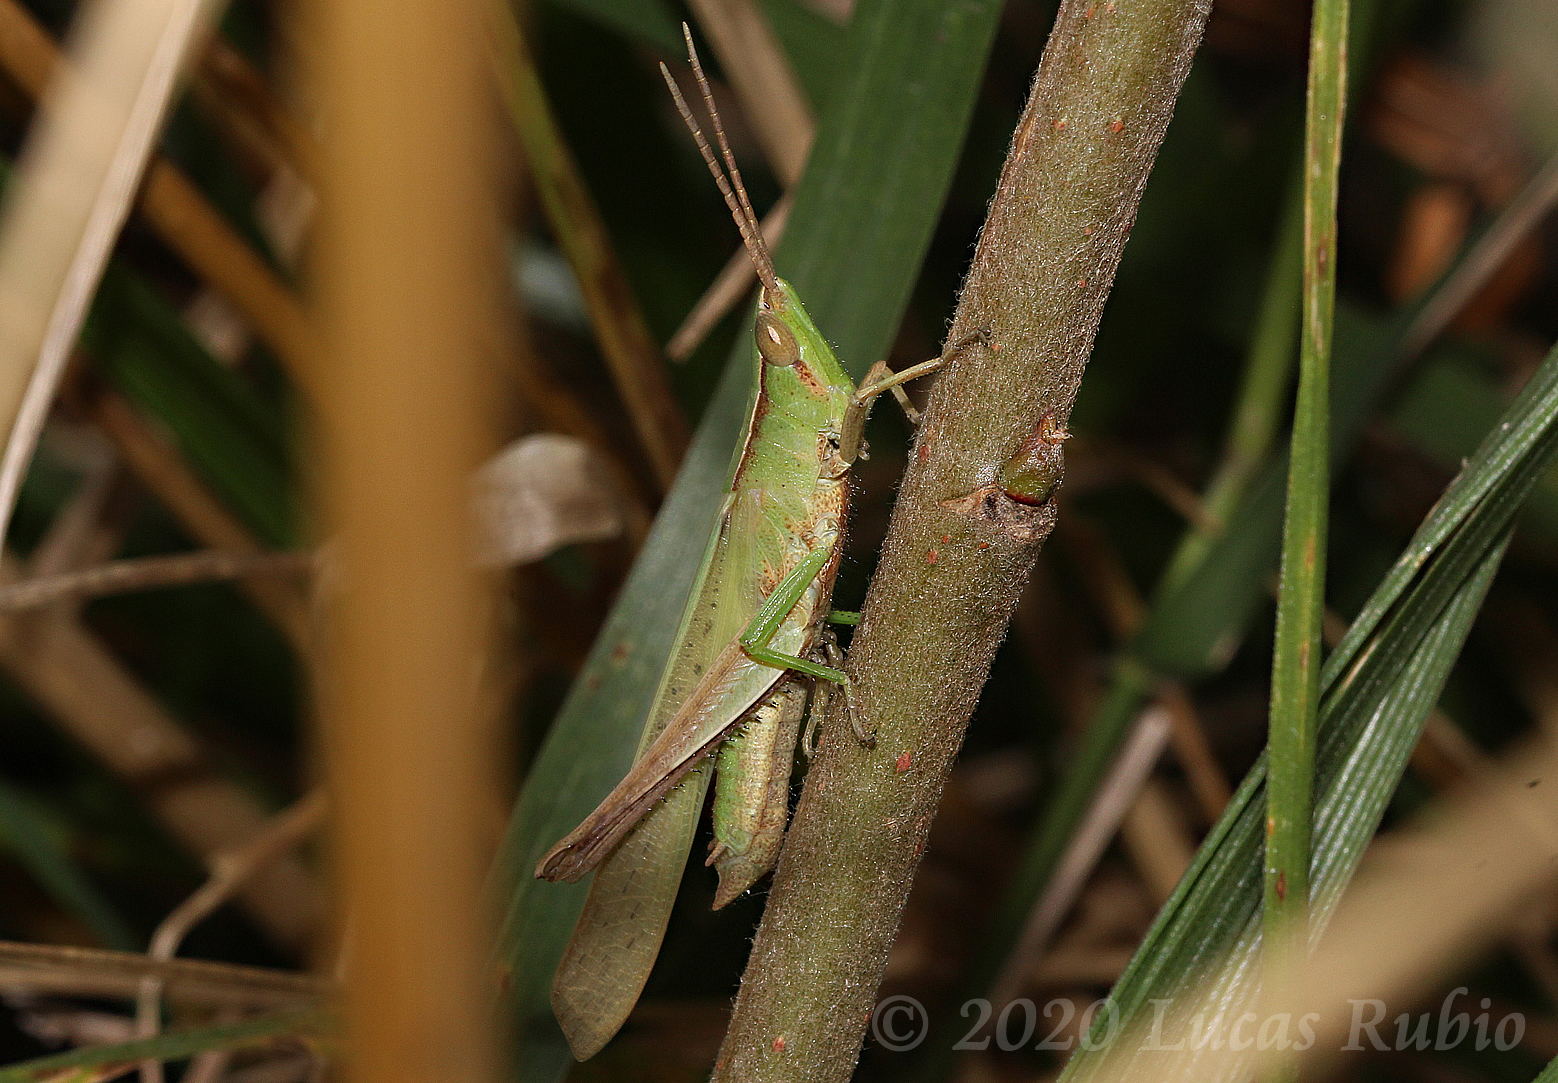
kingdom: Animalia
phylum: Arthropoda
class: Insecta
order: Orthoptera
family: Acrididae
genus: Metaleptea
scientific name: Metaleptea adspersa
